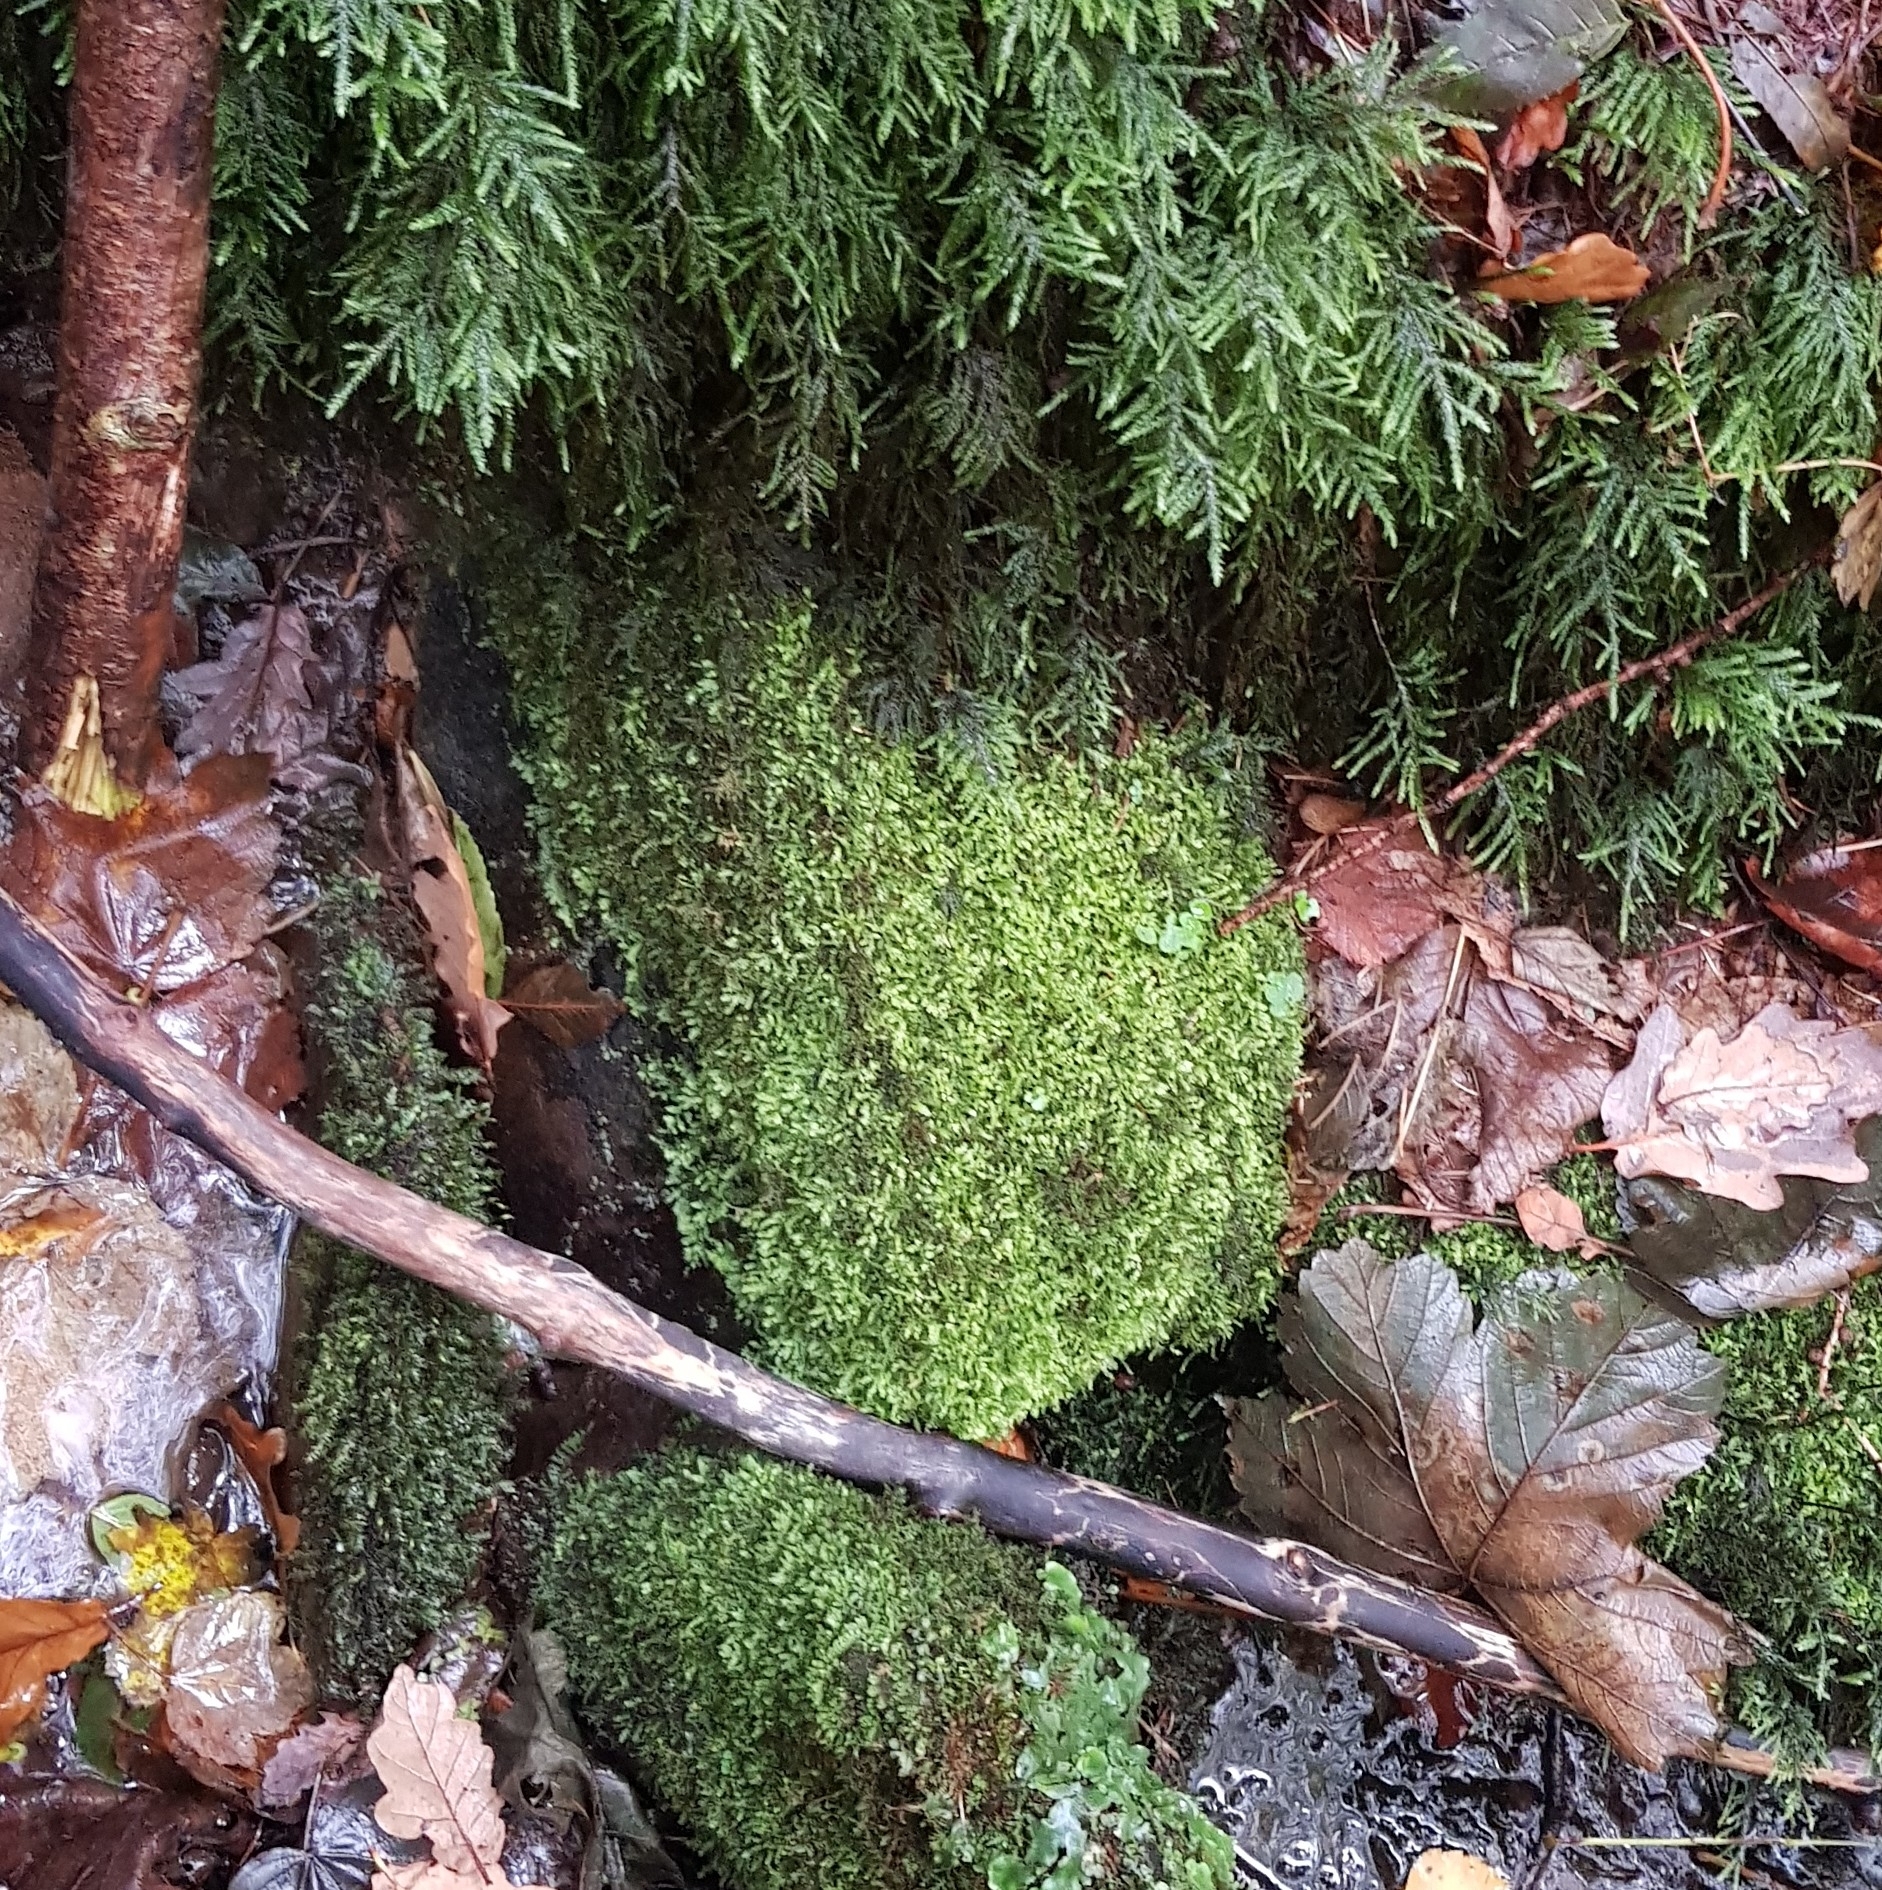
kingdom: Plantae
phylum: Bryophyta
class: Bryopsida
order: Hypnales
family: Brachytheciaceae
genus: Oxyrrhynchium
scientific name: Oxyrrhynchium hians
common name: Spreading beaked moss
